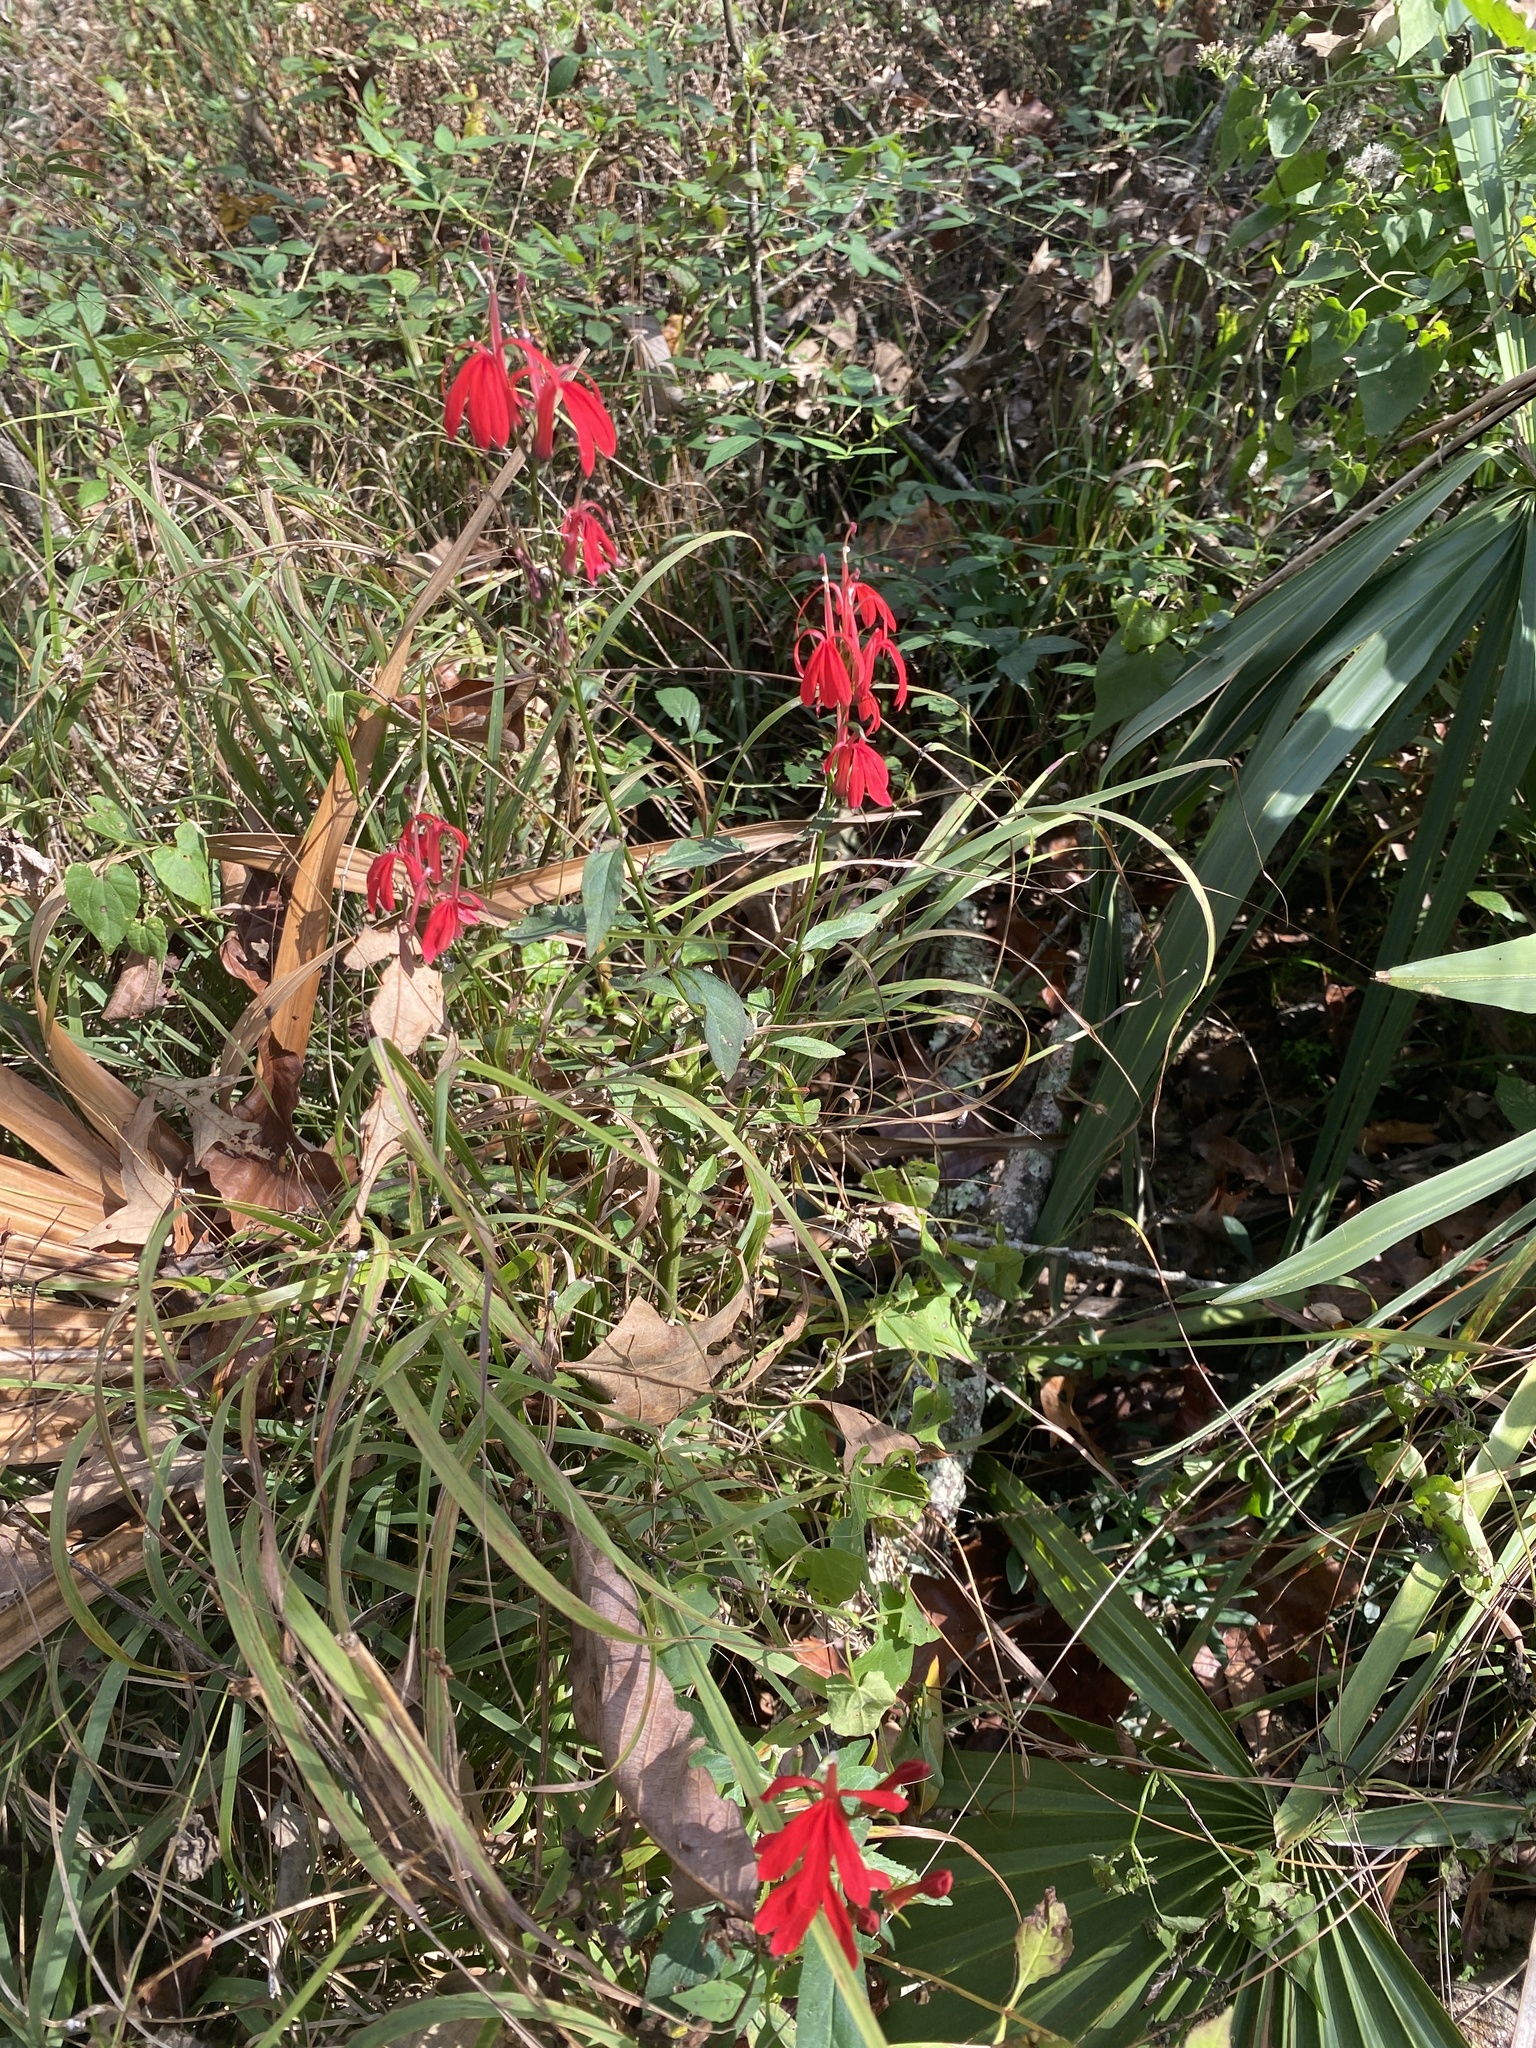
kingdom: Plantae
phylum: Tracheophyta
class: Magnoliopsida
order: Asterales
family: Campanulaceae
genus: Lobelia
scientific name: Lobelia cardinalis
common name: Cardinal flower
